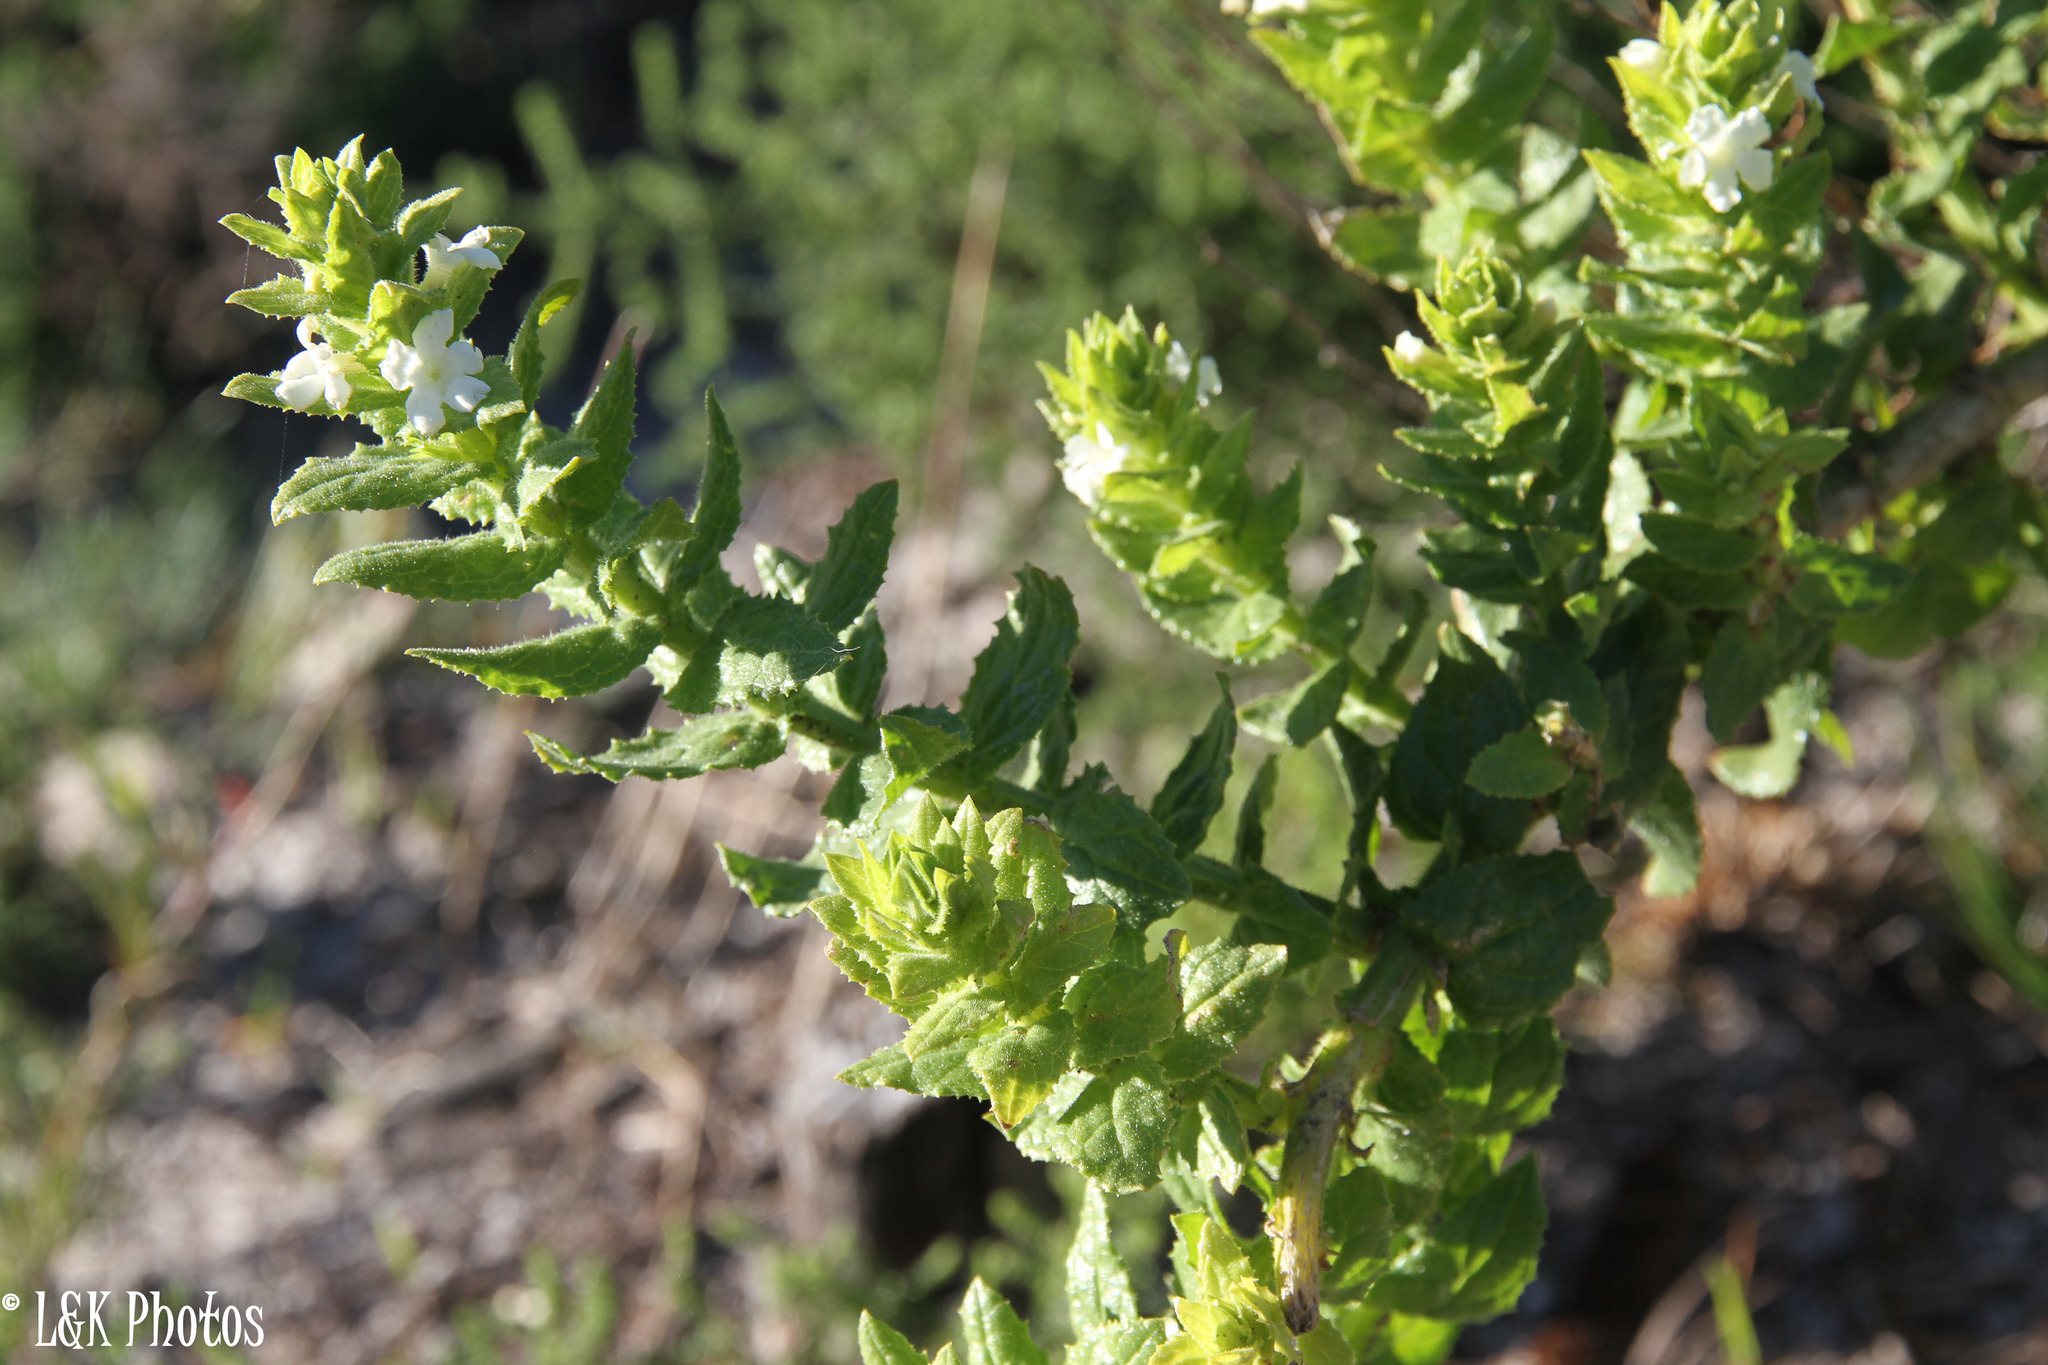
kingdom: Plantae
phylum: Tracheophyta
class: Magnoliopsida
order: Lamiales
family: Scrophulariaceae
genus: Oftia
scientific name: Oftia africana
